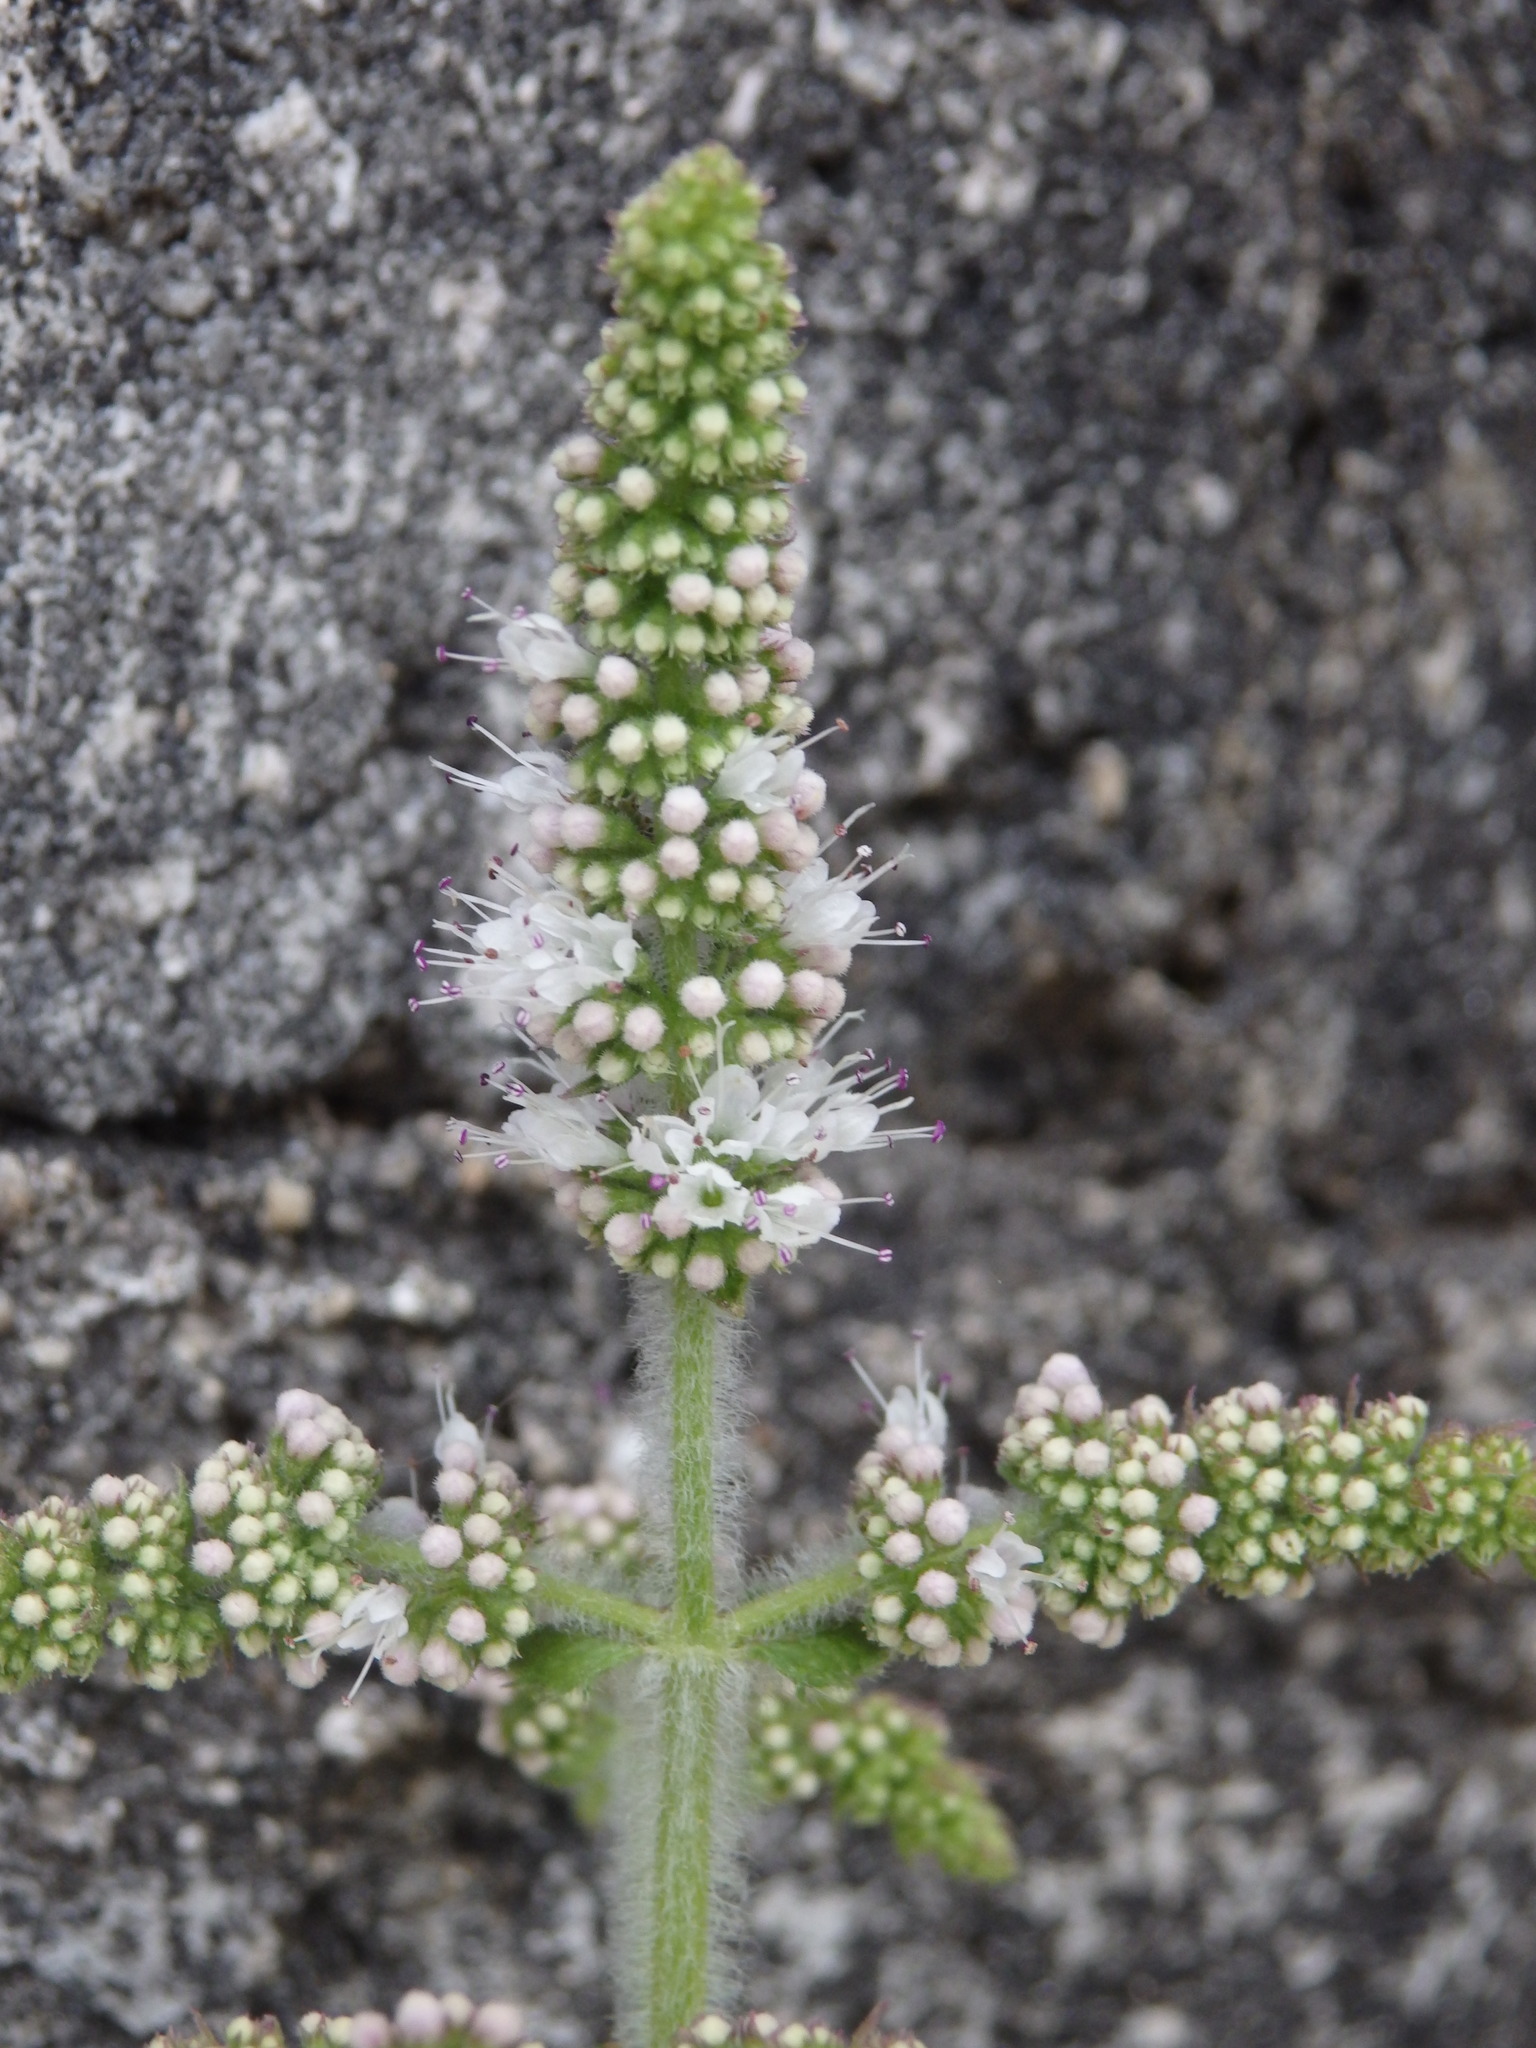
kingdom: Plantae
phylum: Tracheophyta
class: Magnoliopsida
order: Lamiales
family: Lamiaceae
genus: Mentha
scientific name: Mentha suaveolens
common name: Apple mint
